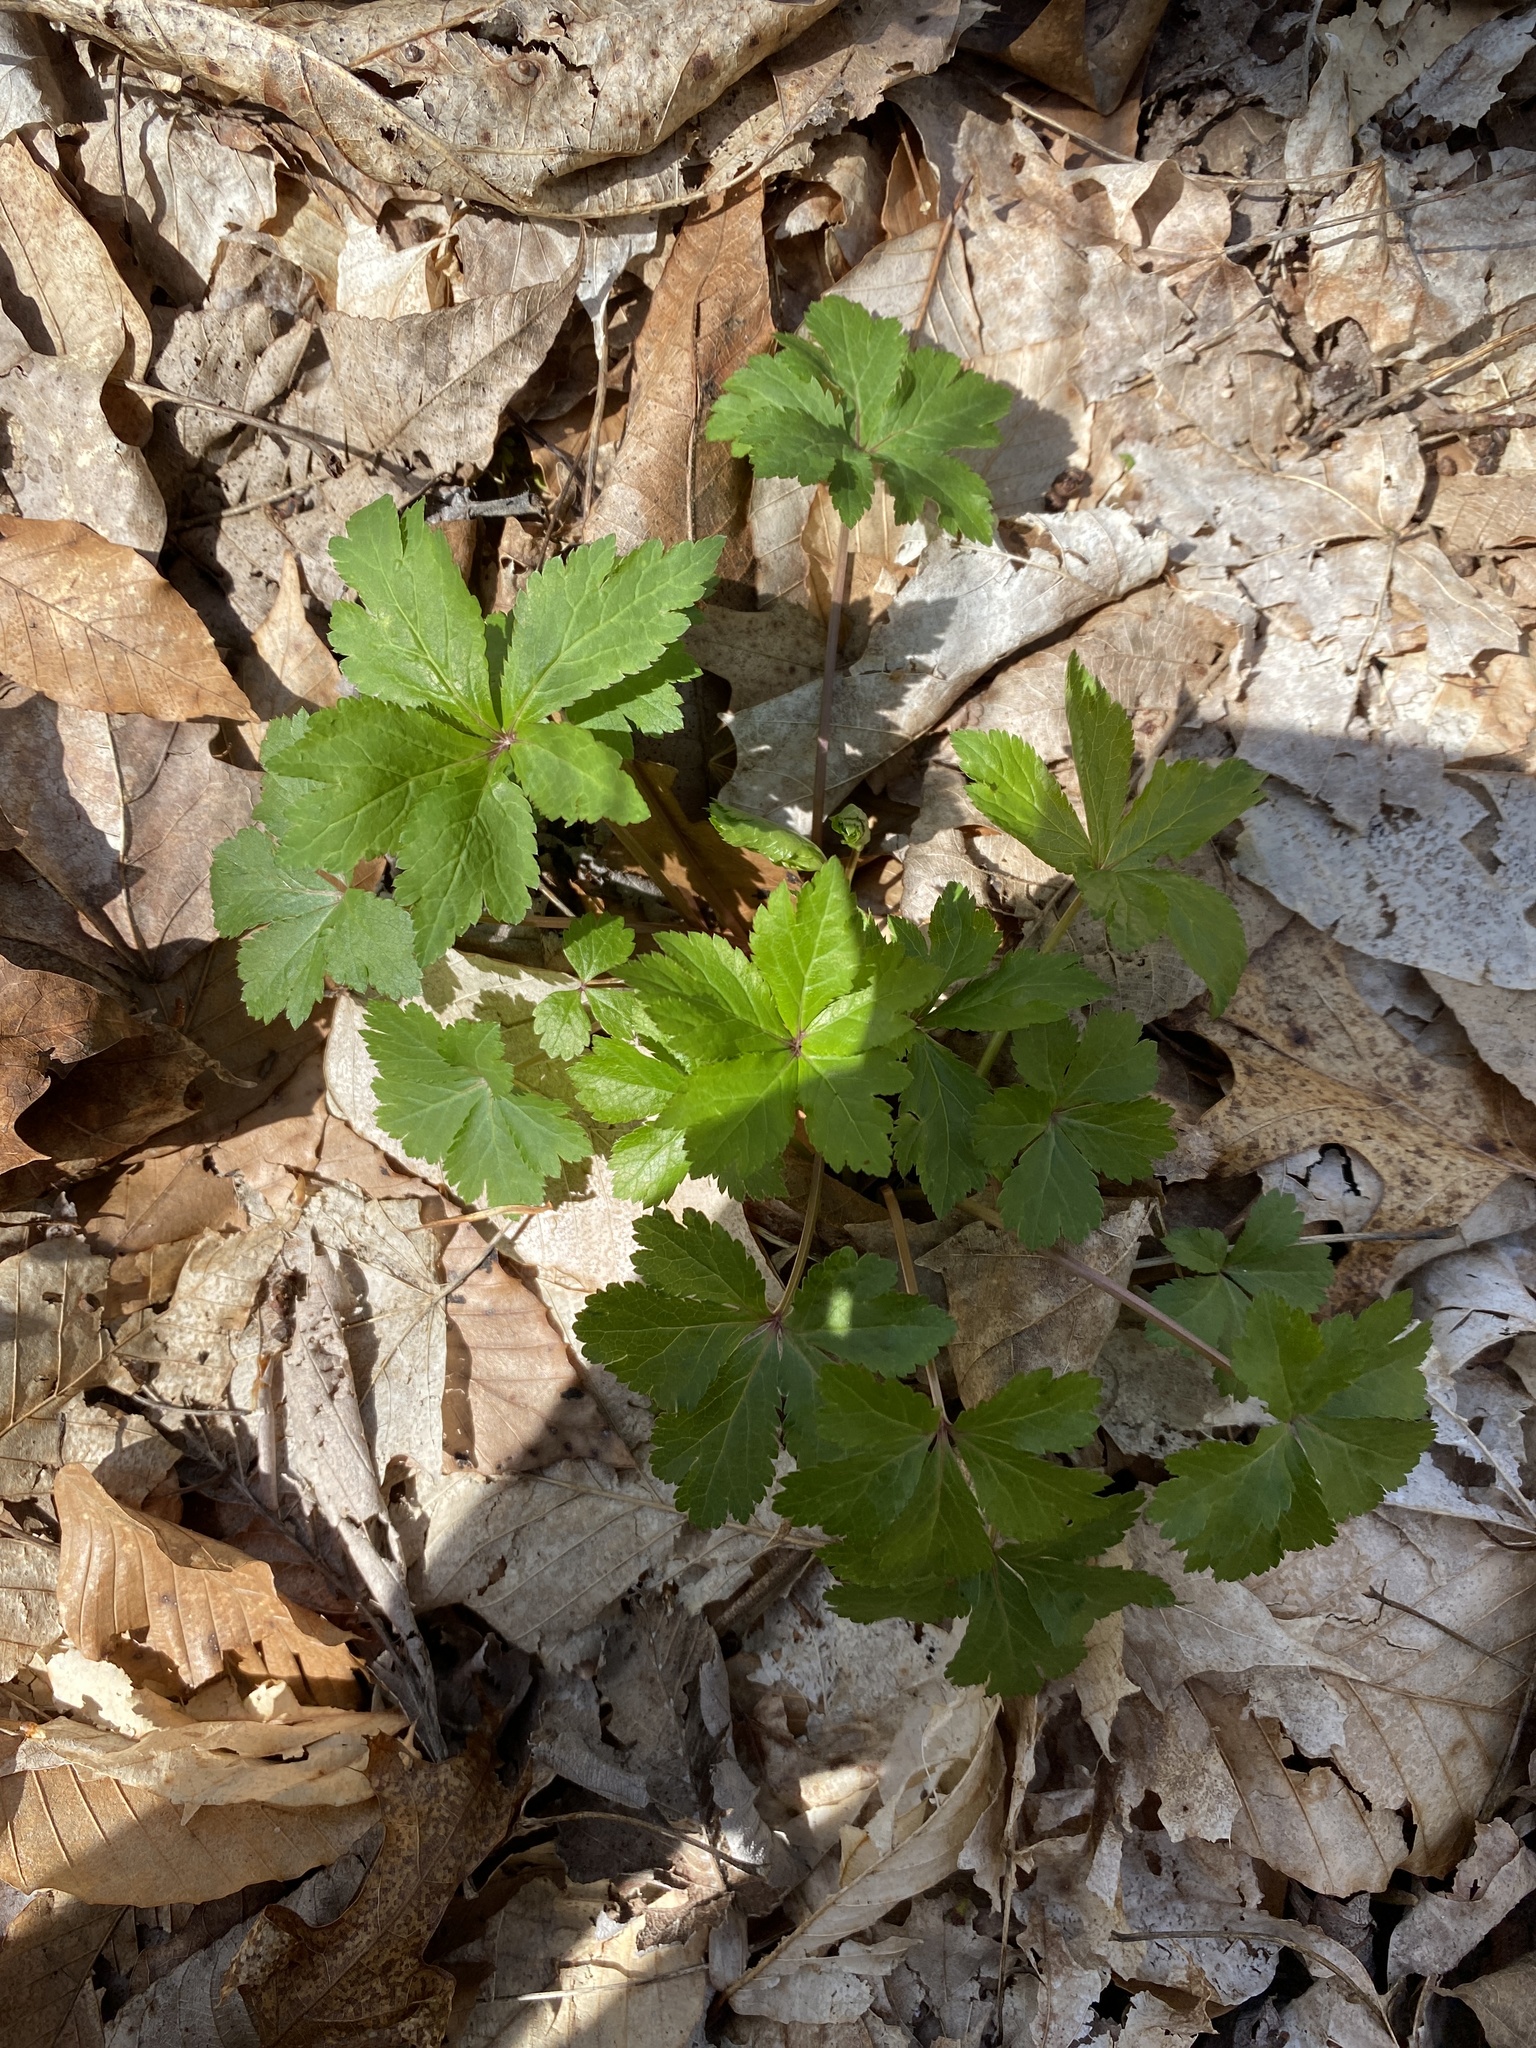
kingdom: Plantae
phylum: Tracheophyta
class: Magnoliopsida
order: Apiales
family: Apiaceae
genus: Sanicula
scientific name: Sanicula odorata
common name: Cluster sanicle
